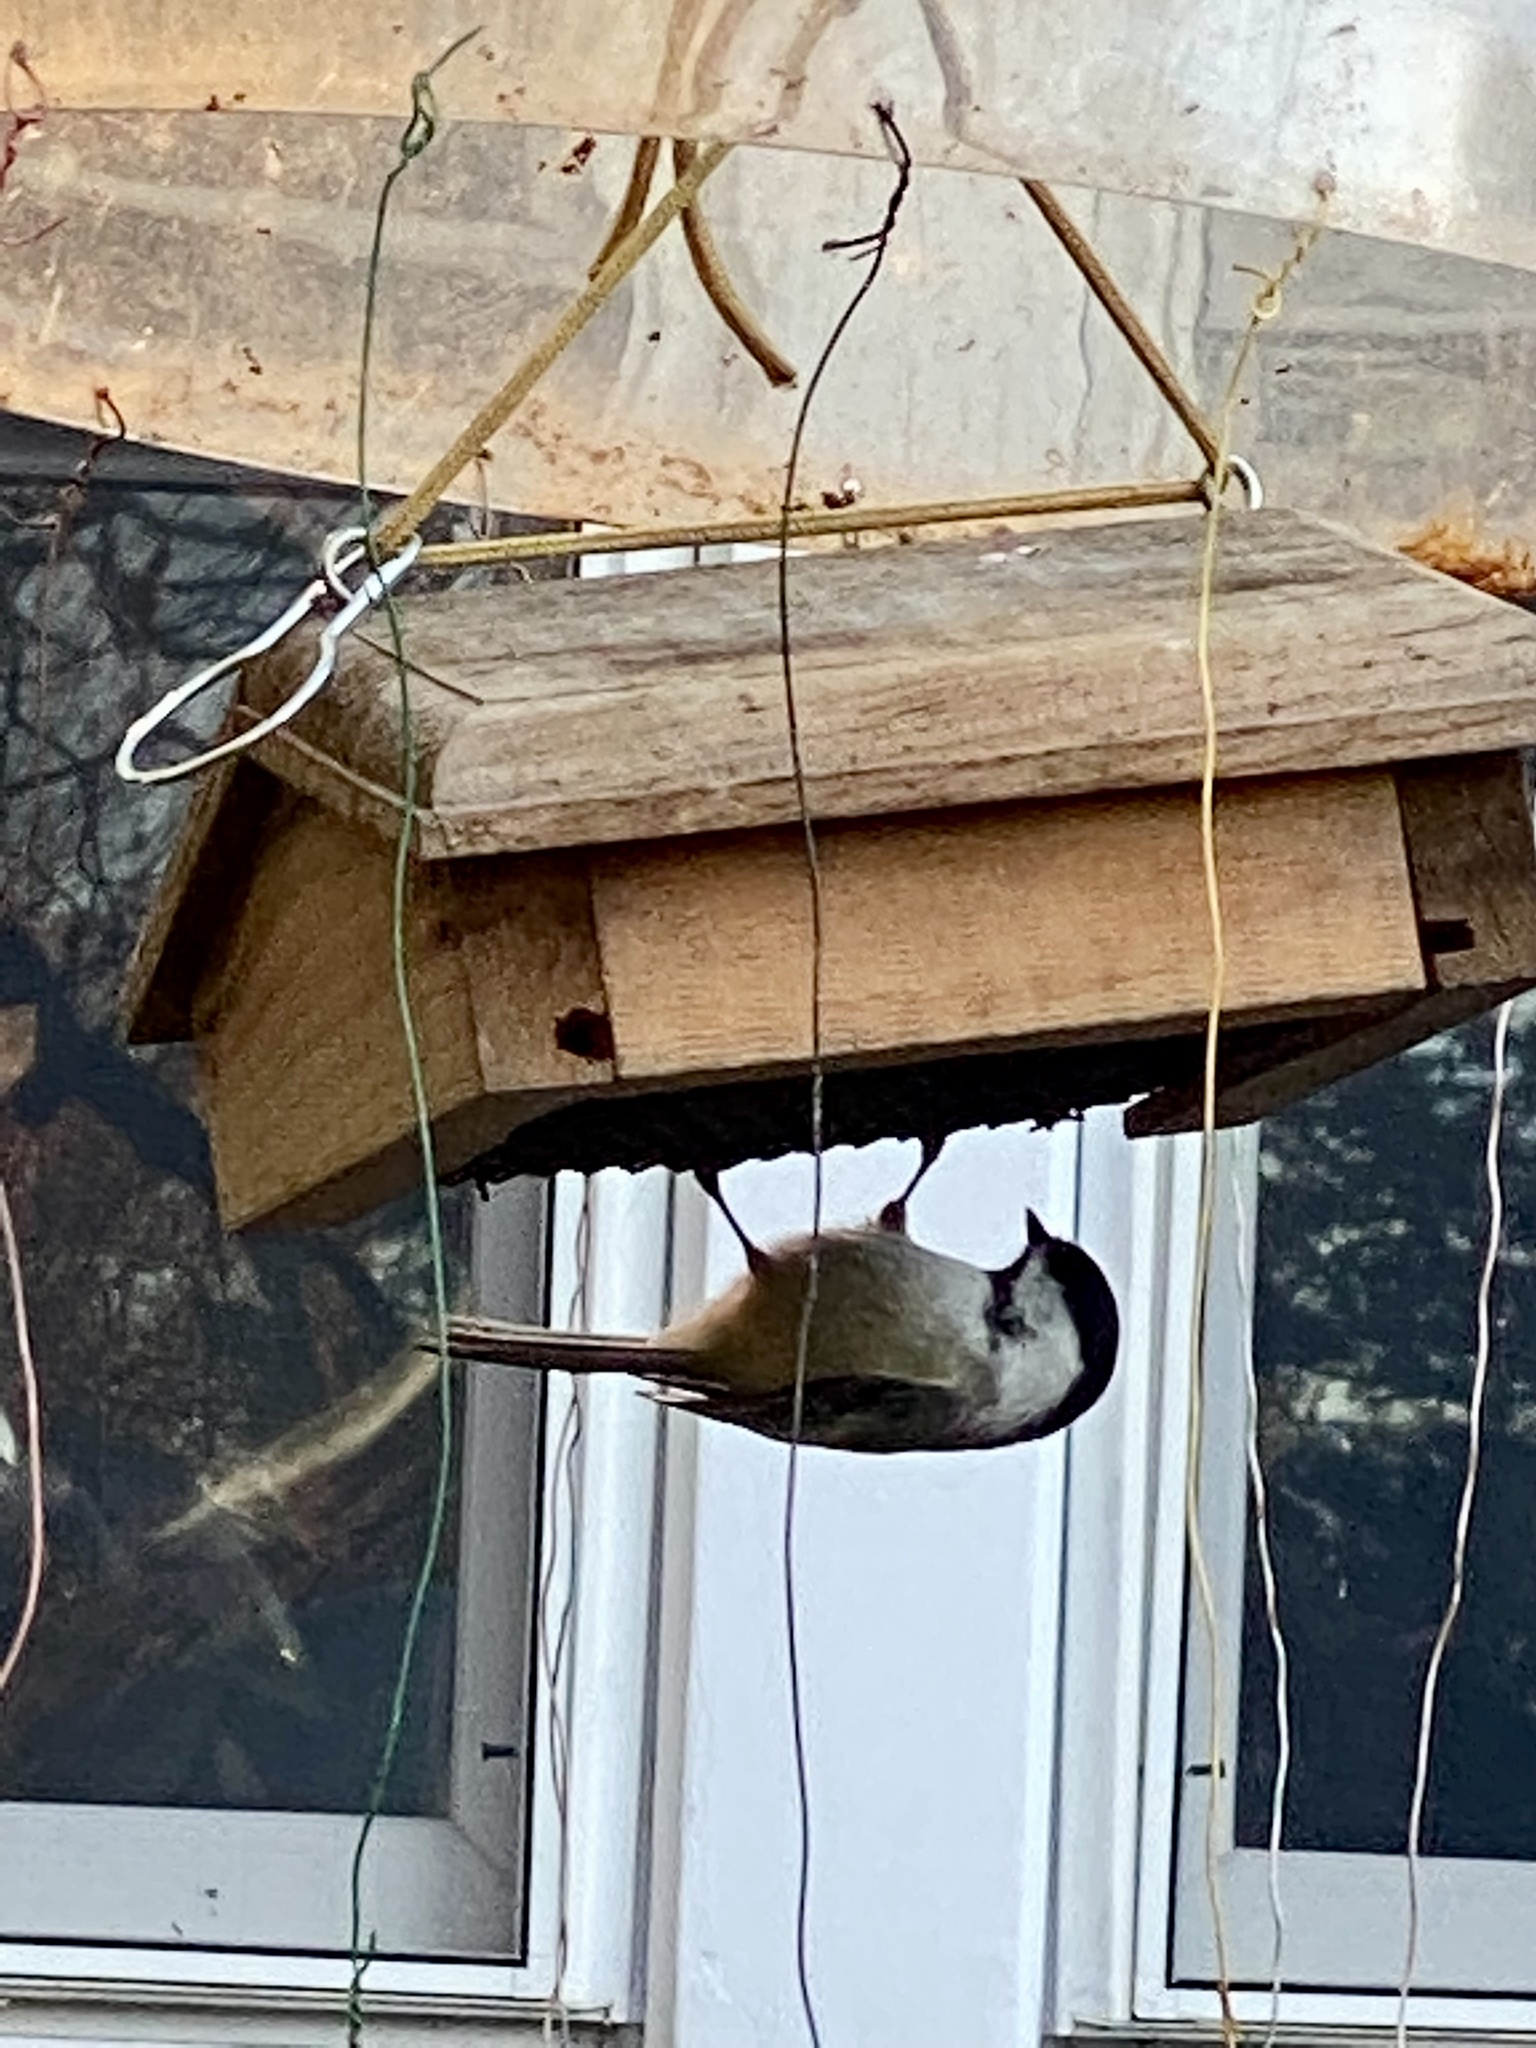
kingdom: Animalia
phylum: Chordata
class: Aves
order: Passeriformes
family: Paridae
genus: Poecile
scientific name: Poecile atricapillus
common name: Black-capped chickadee
